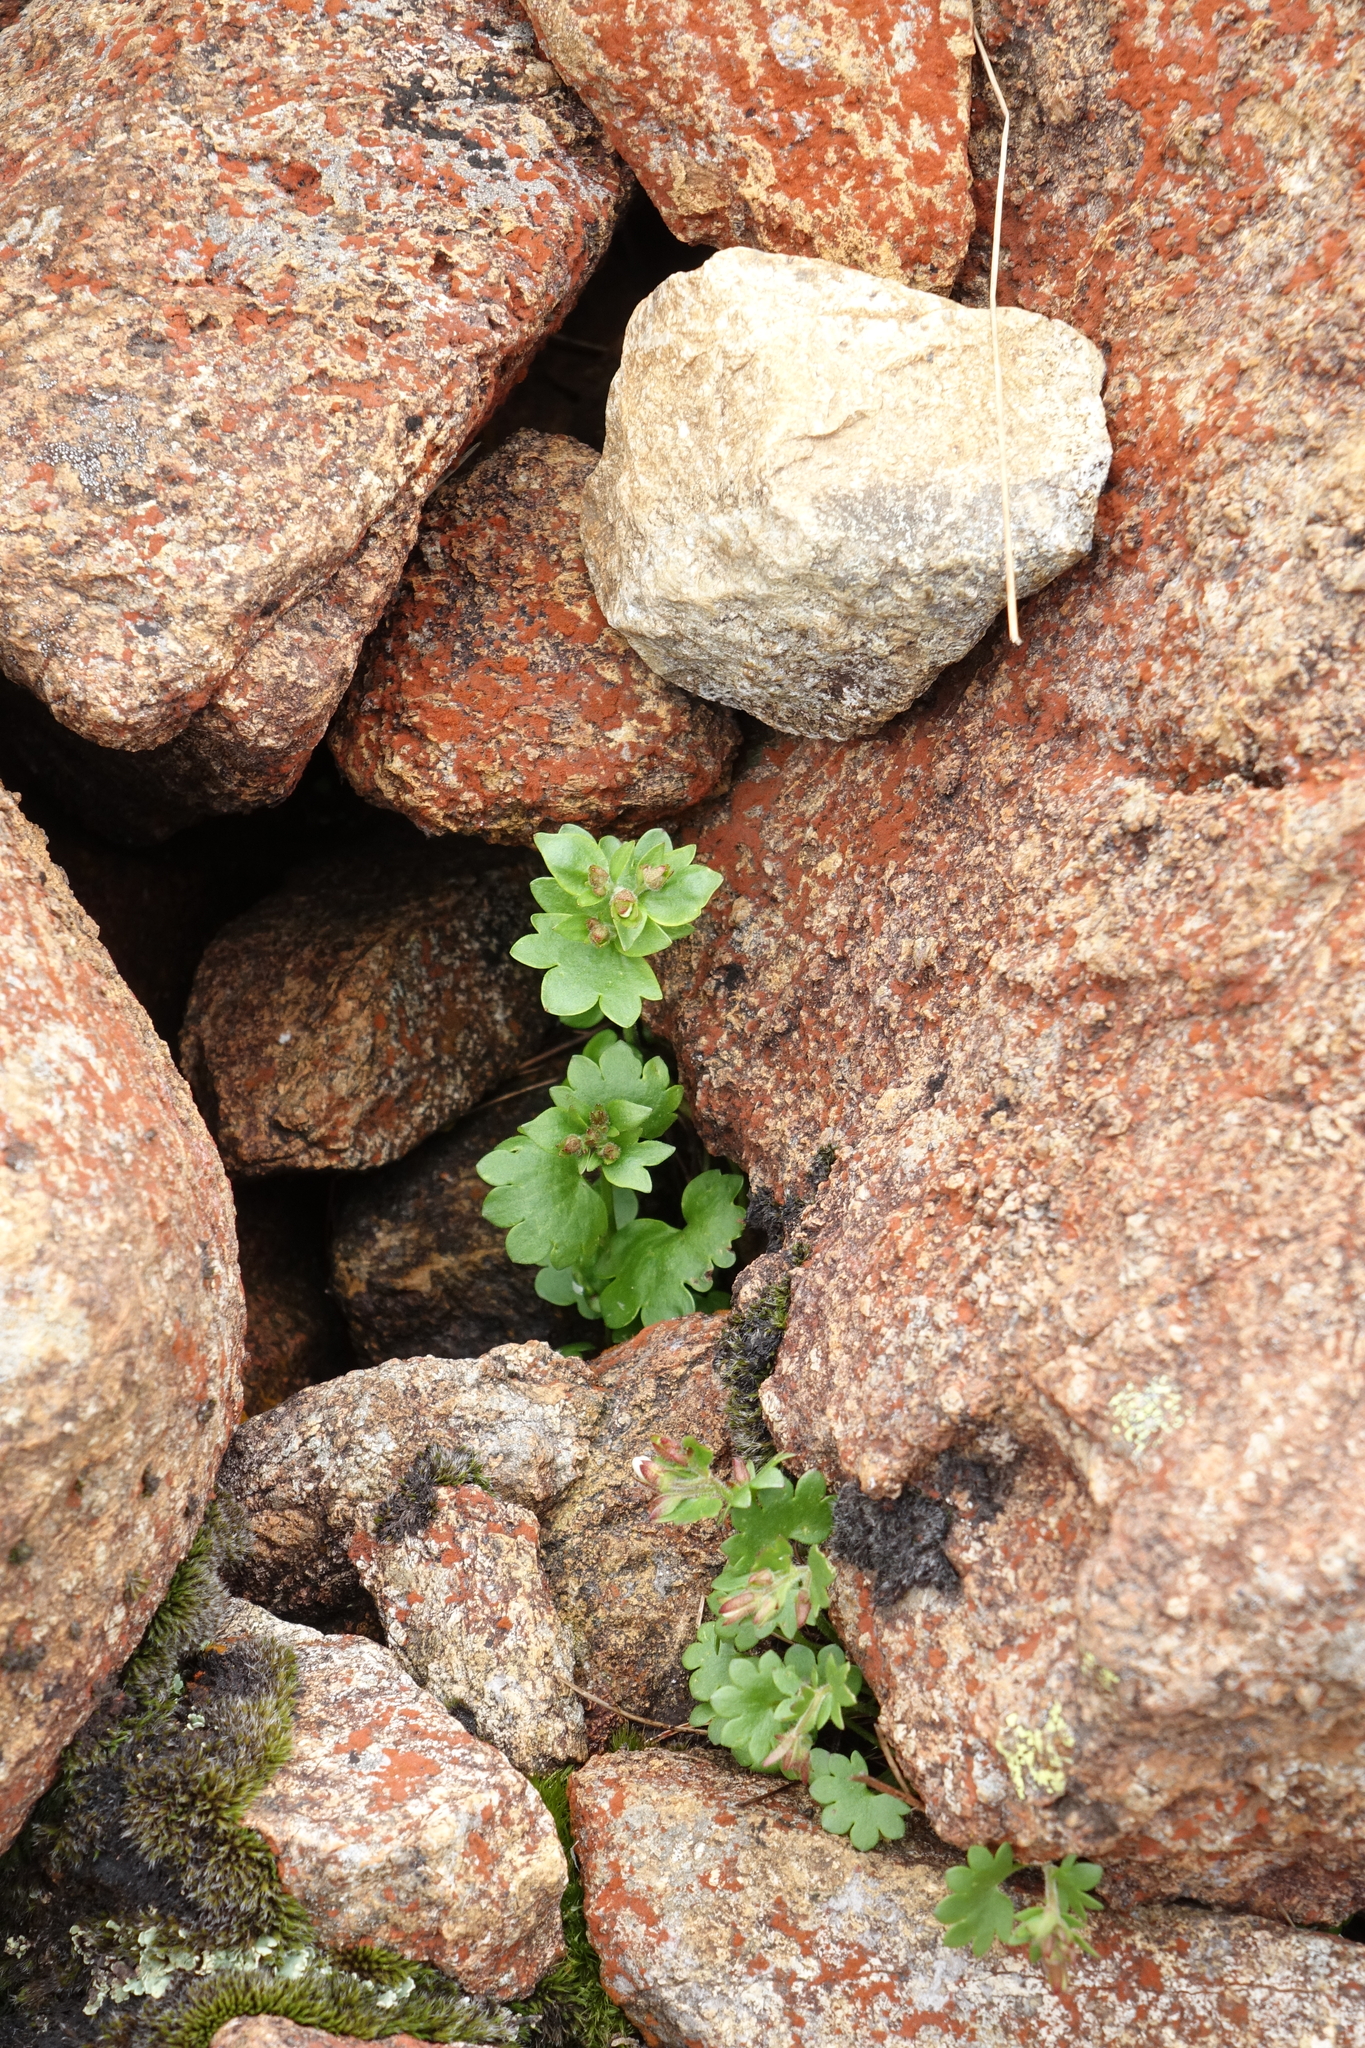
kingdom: Plantae
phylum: Tracheophyta
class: Magnoliopsida
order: Saxifragales
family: Saxifragaceae
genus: Saxifraga
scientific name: Saxifraga sibirica
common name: Siberian saxifrage
